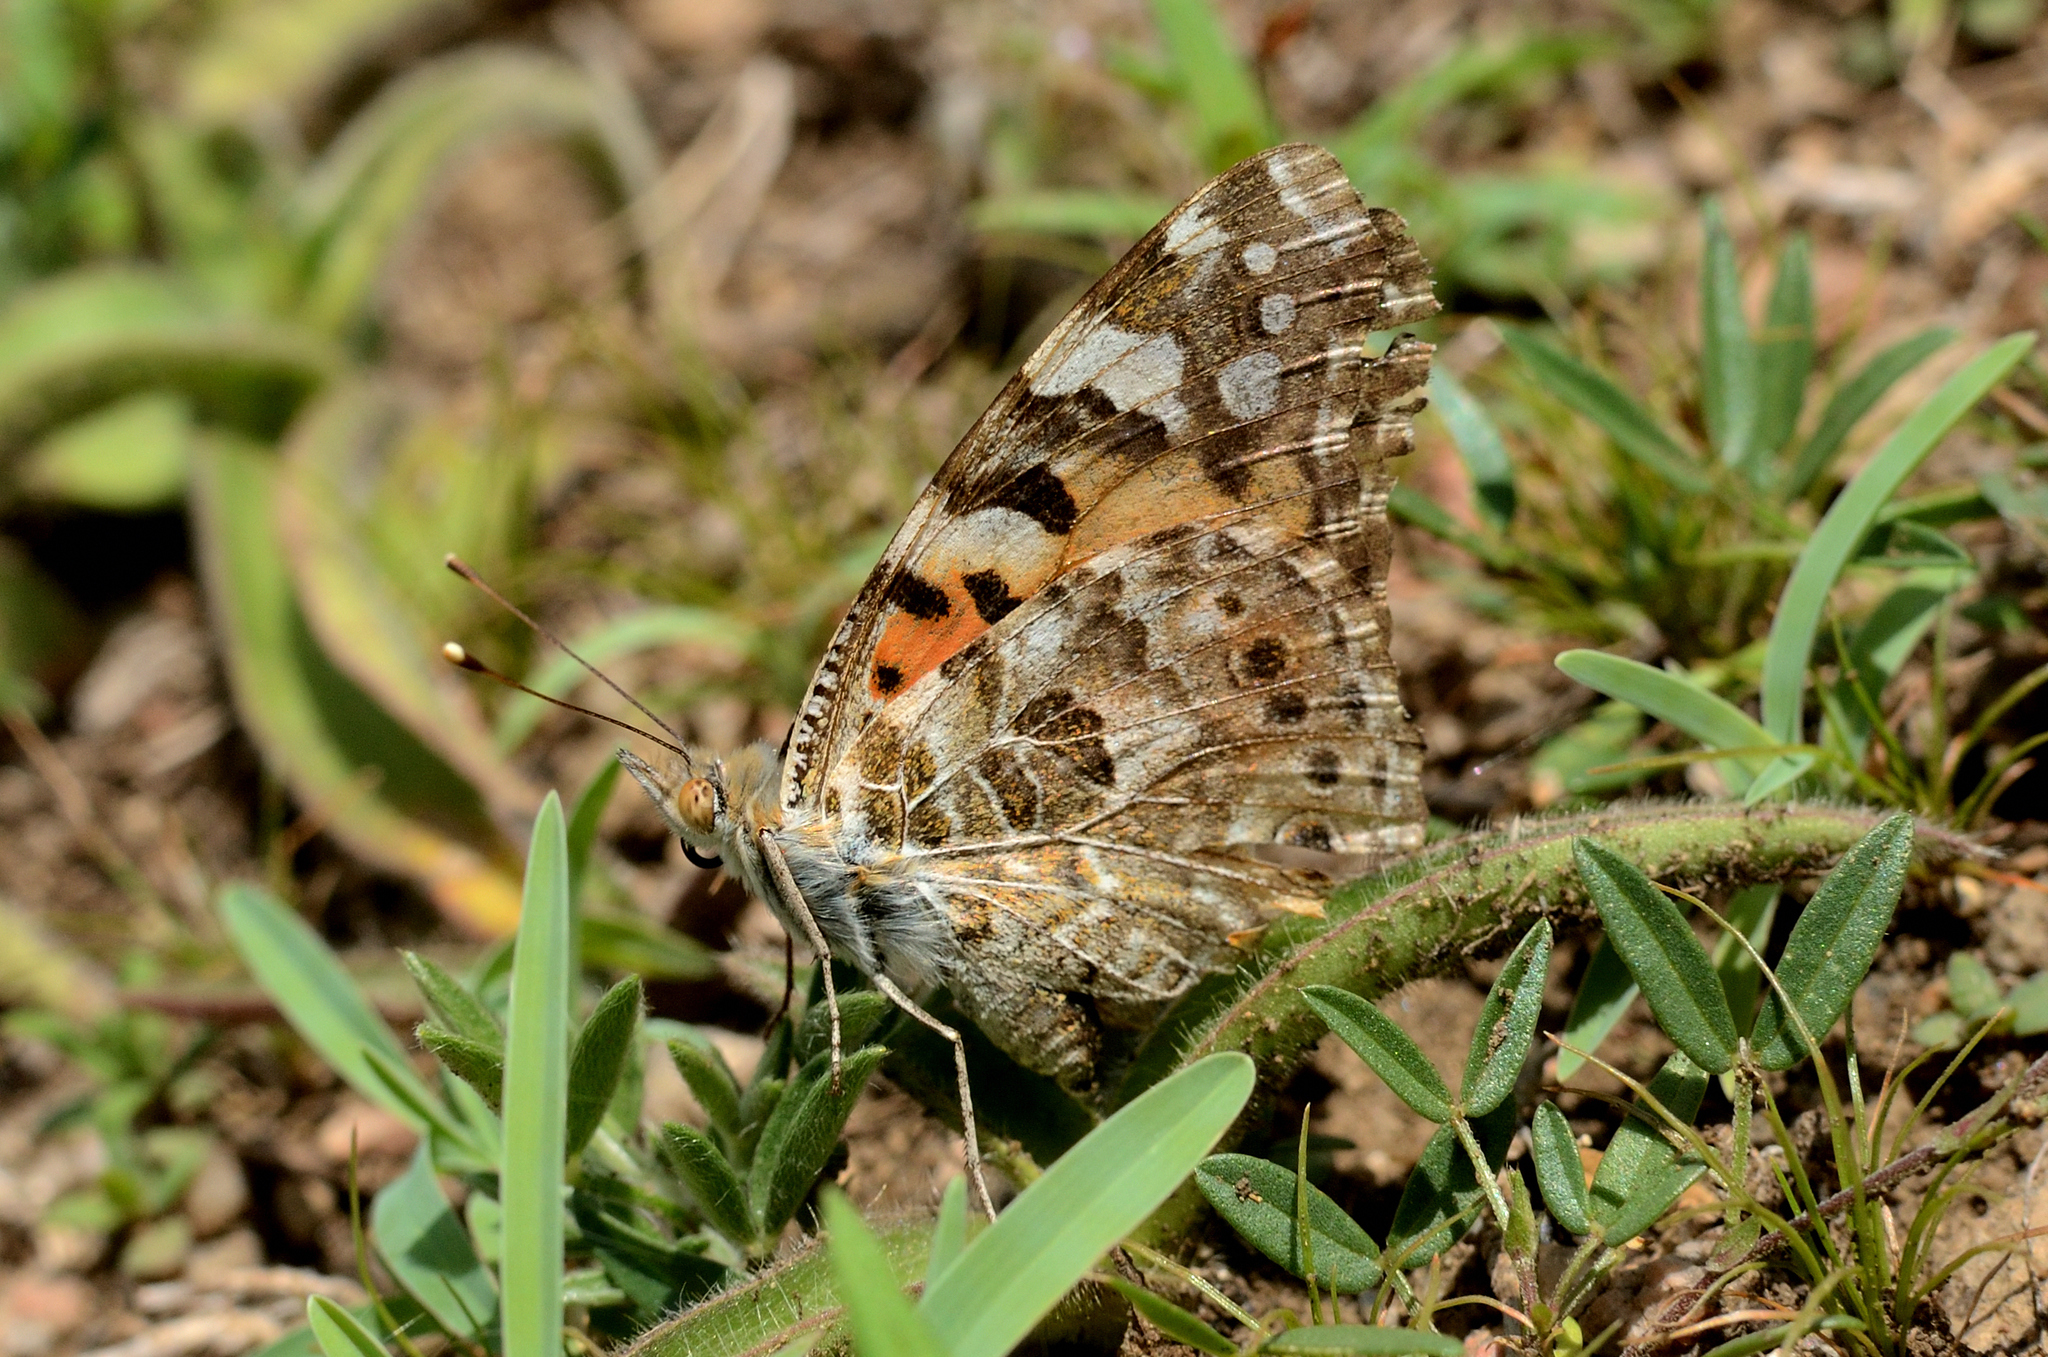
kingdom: Animalia
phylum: Arthropoda
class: Insecta
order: Lepidoptera
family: Nymphalidae
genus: Vanessa
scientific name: Vanessa cardui
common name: Painted lady
